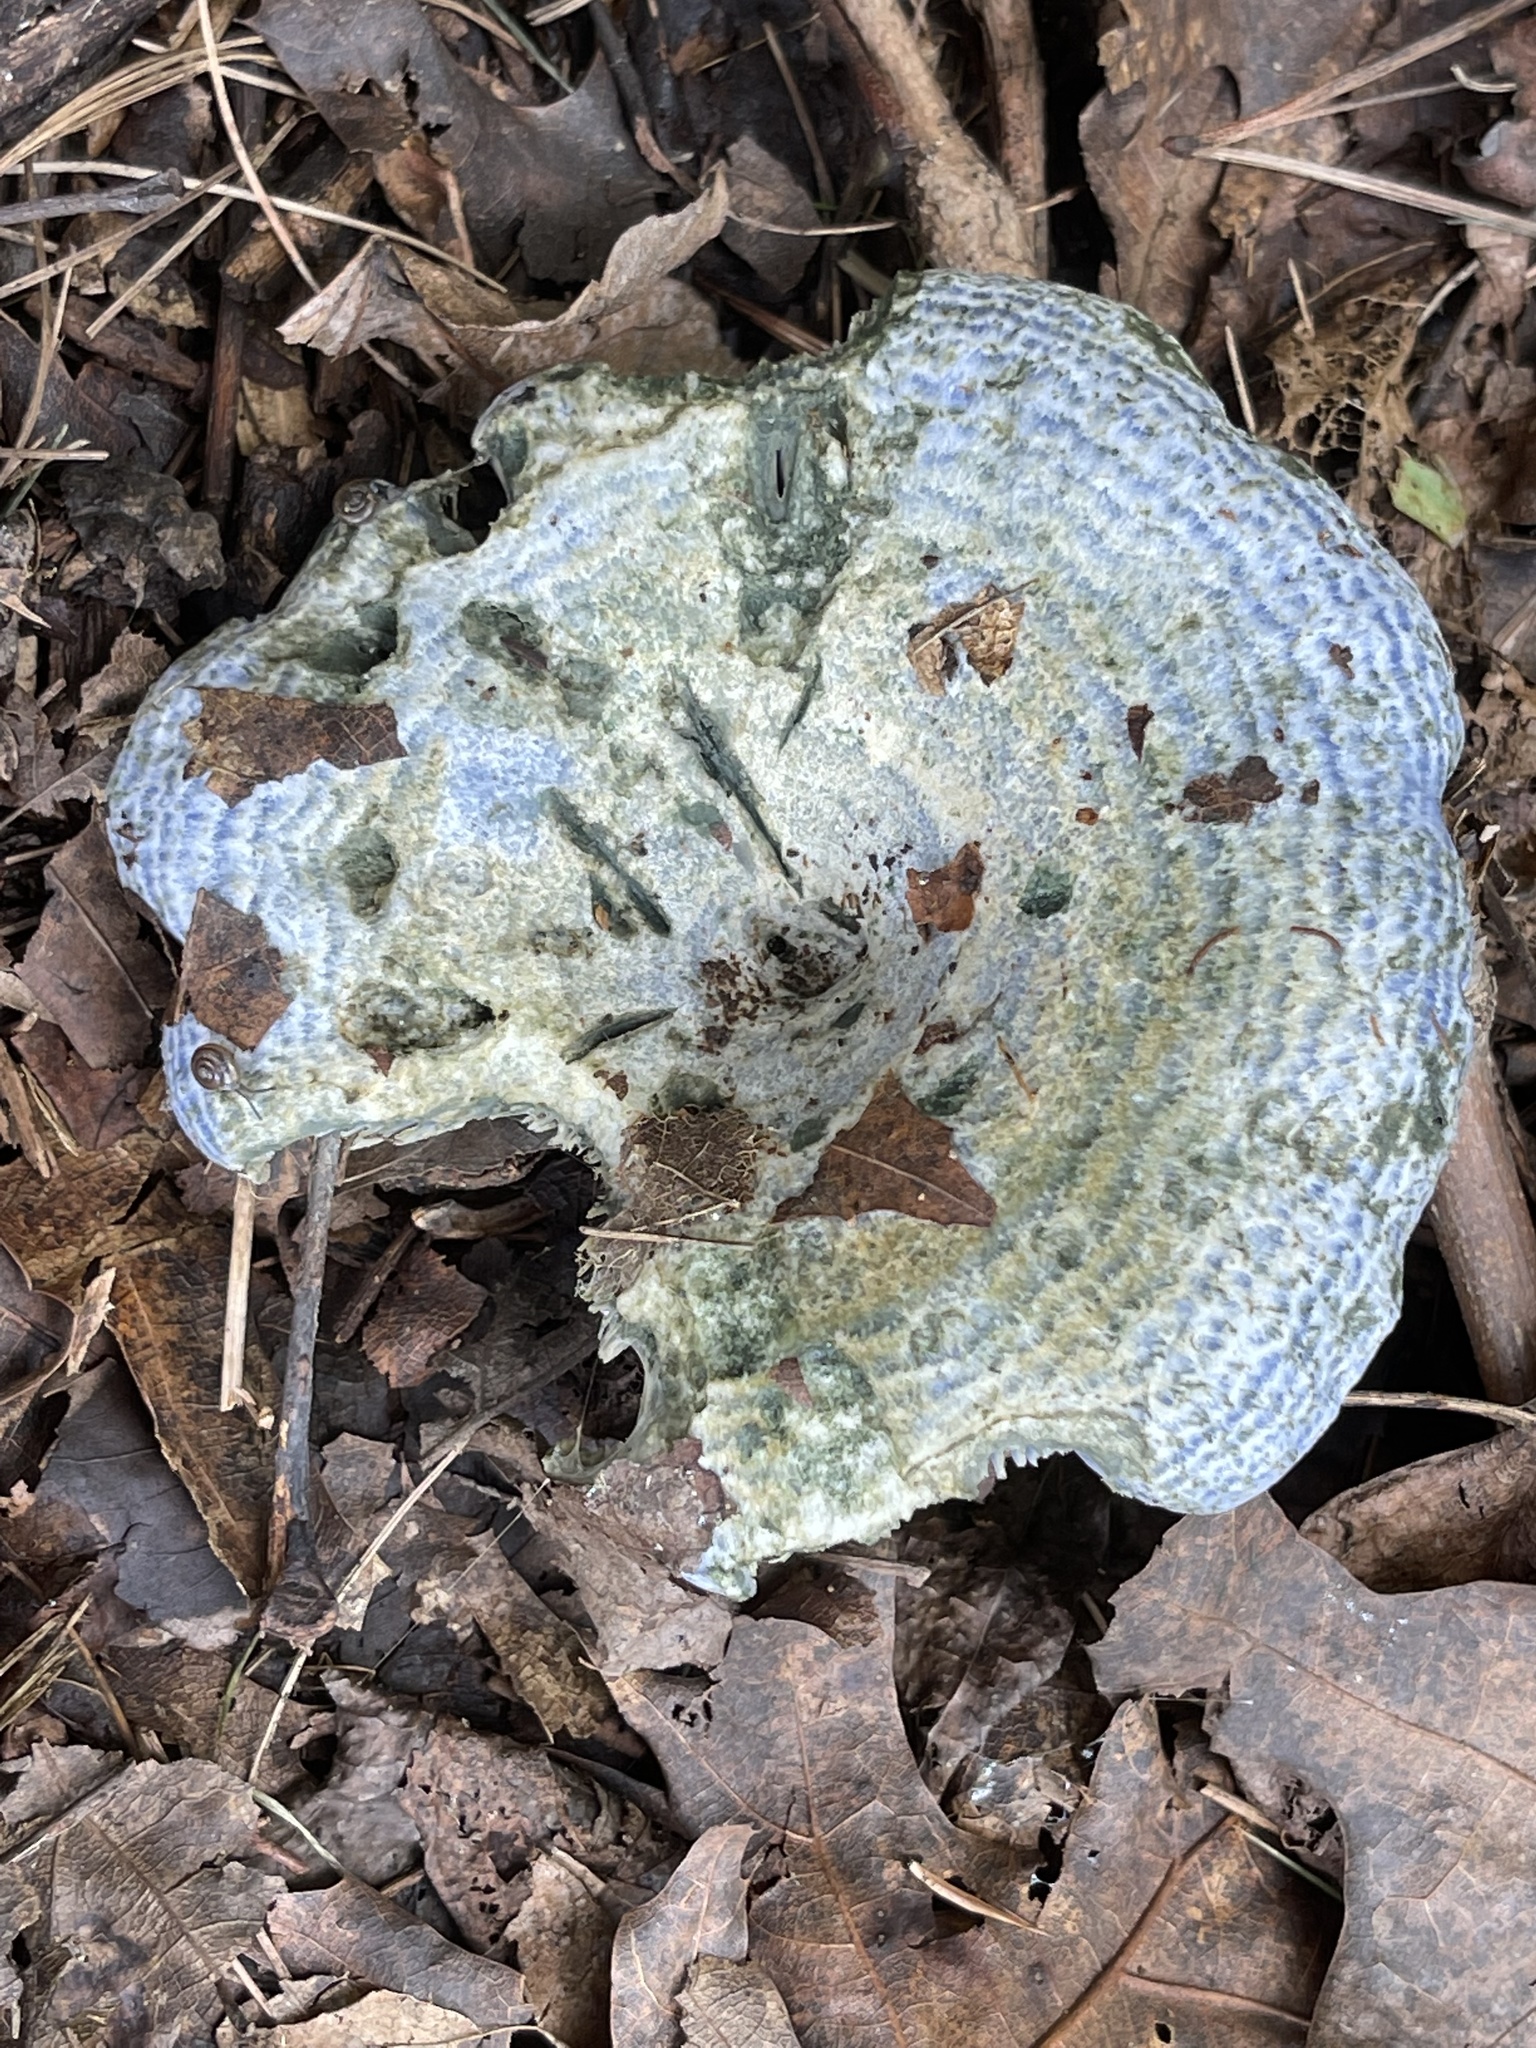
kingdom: Fungi
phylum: Basidiomycota
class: Agaricomycetes
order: Russulales
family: Russulaceae
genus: Lactarius
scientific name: Lactarius indigo
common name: Indigo milk cap
